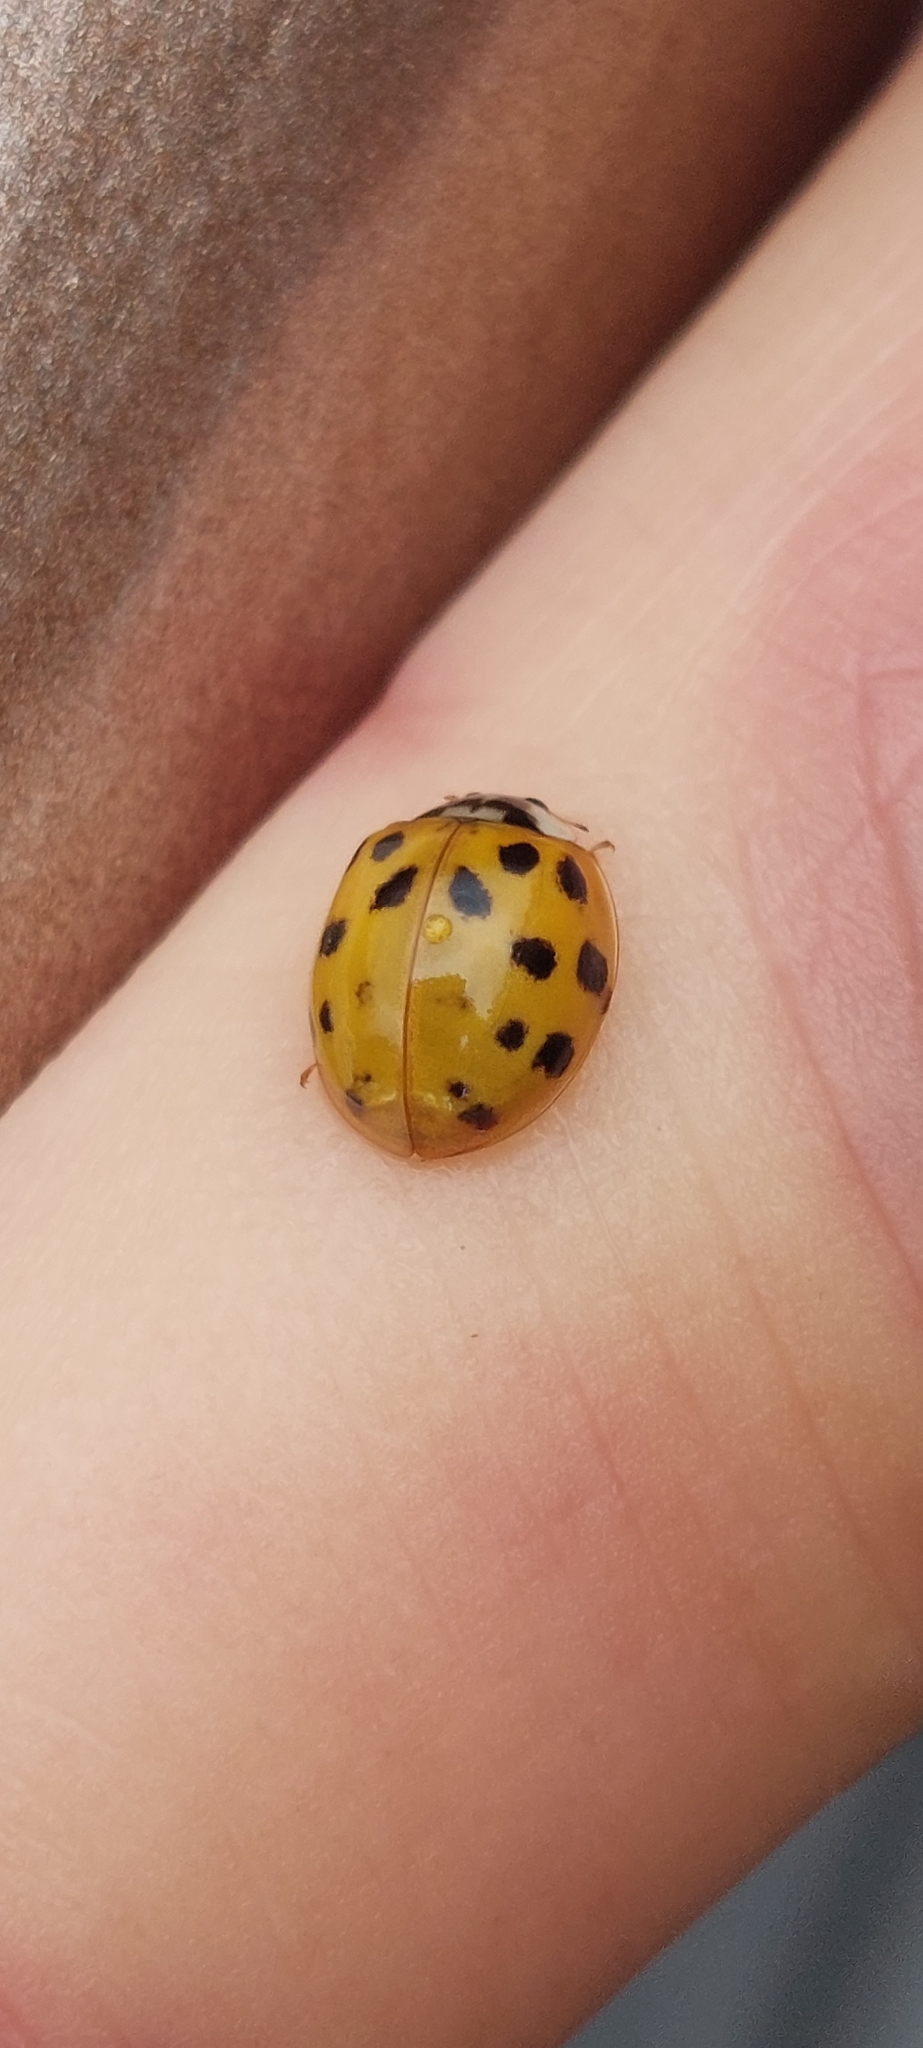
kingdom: Animalia
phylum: Arthropoda
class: Insecta
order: Coleoptera
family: Coccinellidae
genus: Harmonia
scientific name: Harmonia axyridis
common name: Harlequin ladybird
